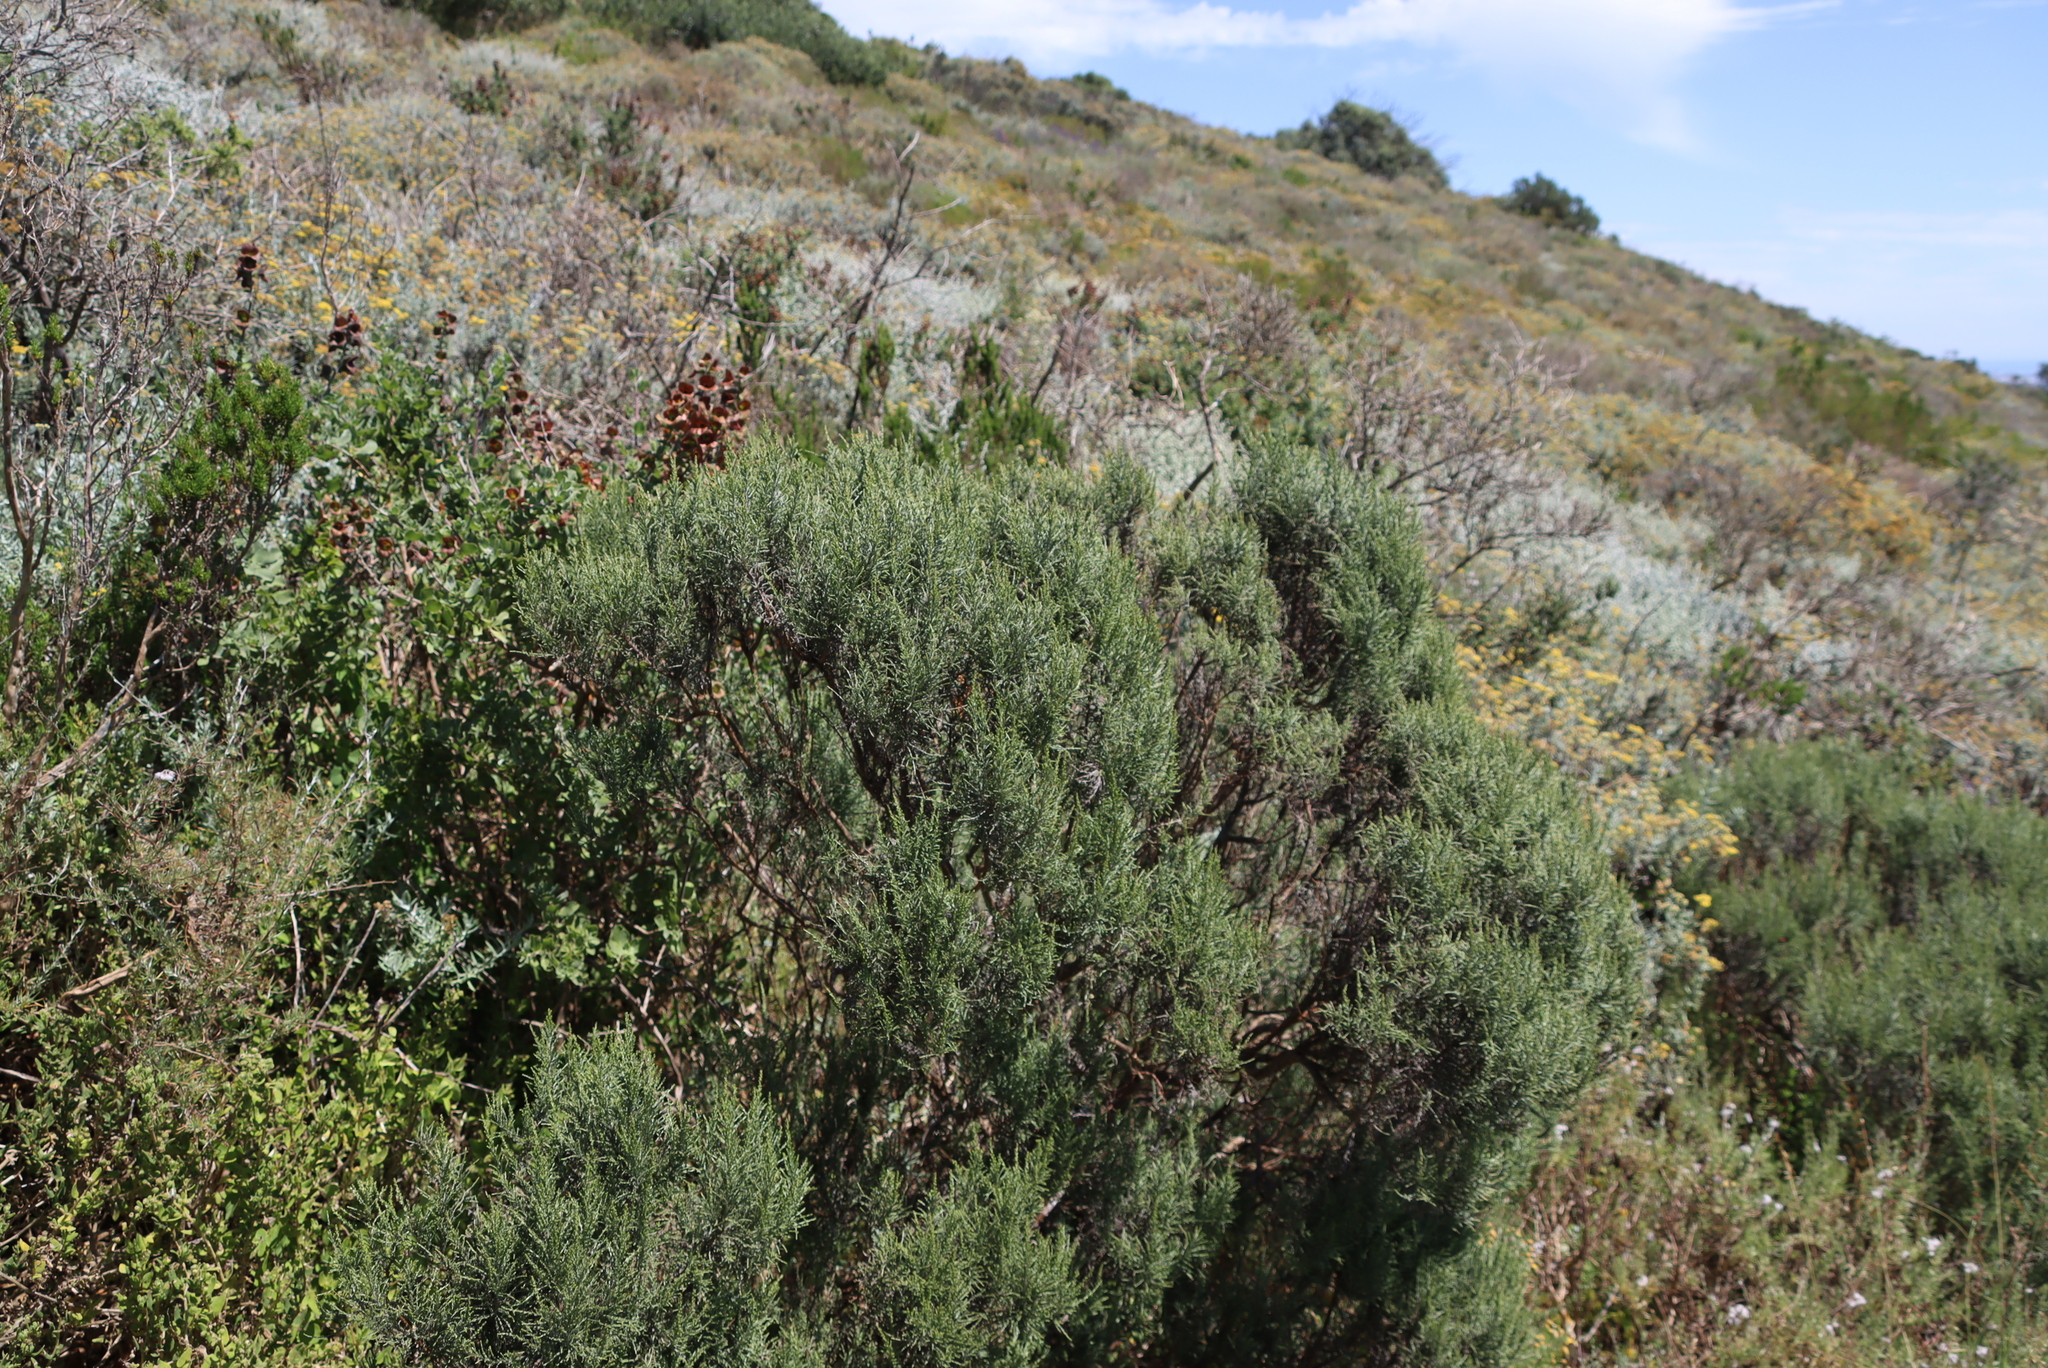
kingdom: Plantae
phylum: Tracheophyta
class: Magnoliopsida
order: Asterales
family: Asteraceae
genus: Dicerothamnus
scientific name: Dicerothamnus rhinocerotis
